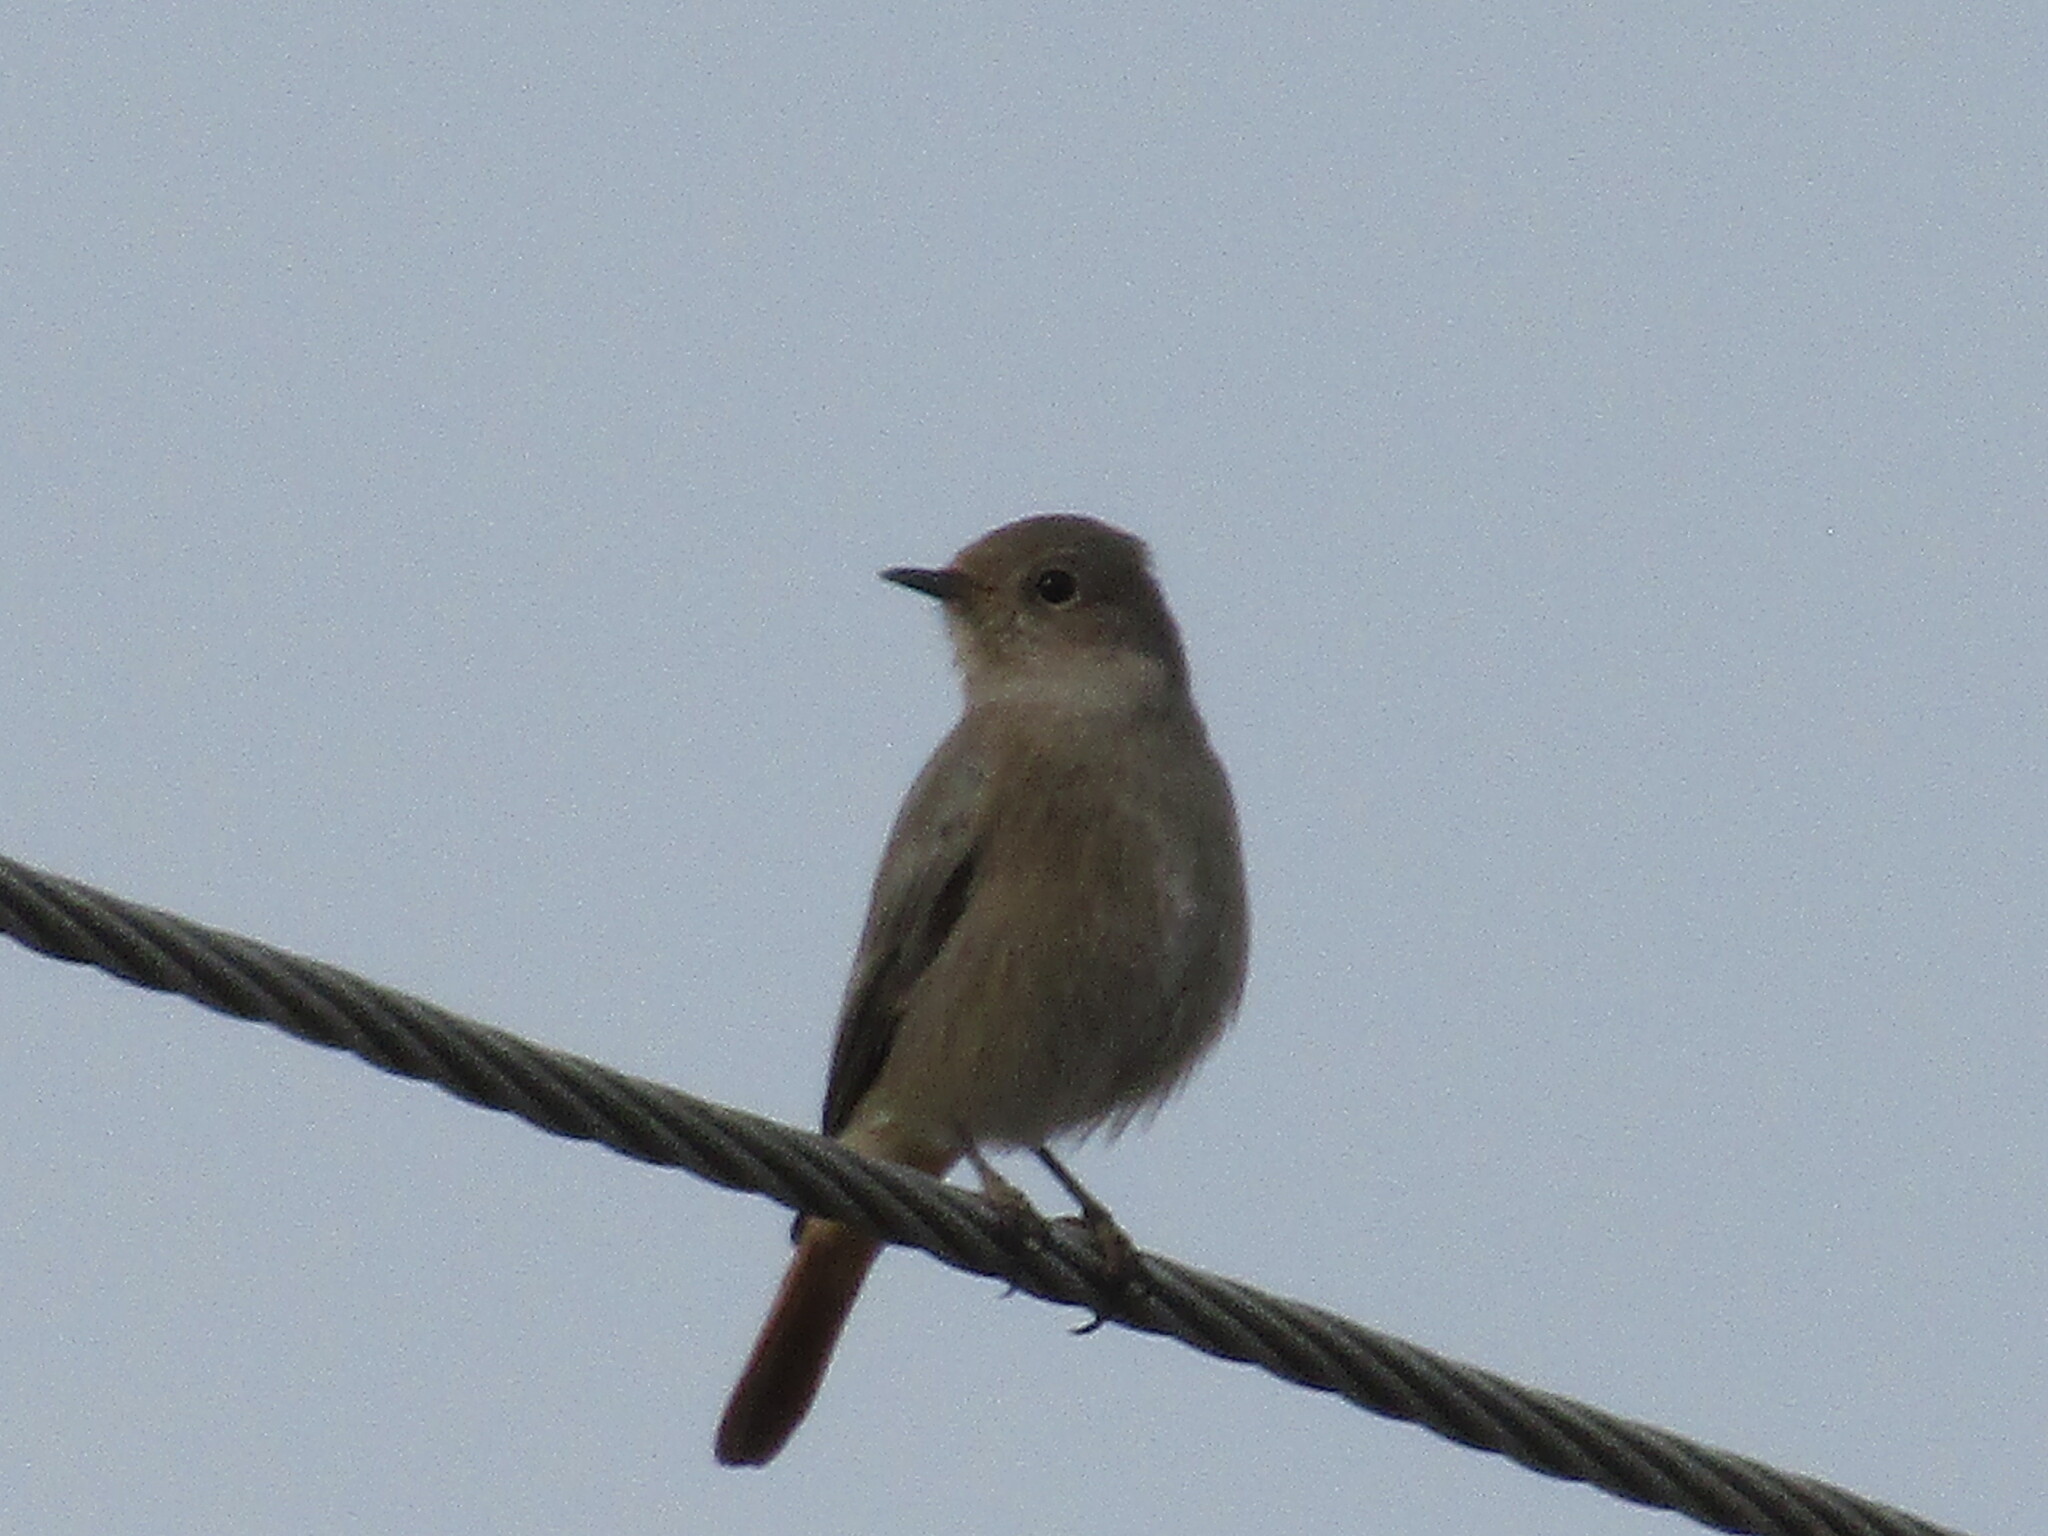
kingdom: Animalia
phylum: Chordata
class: Aves
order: Passeriformes
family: Muscicapidae
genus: Phoenicurus
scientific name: Phoenicurus ochruros
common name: Black redstart
